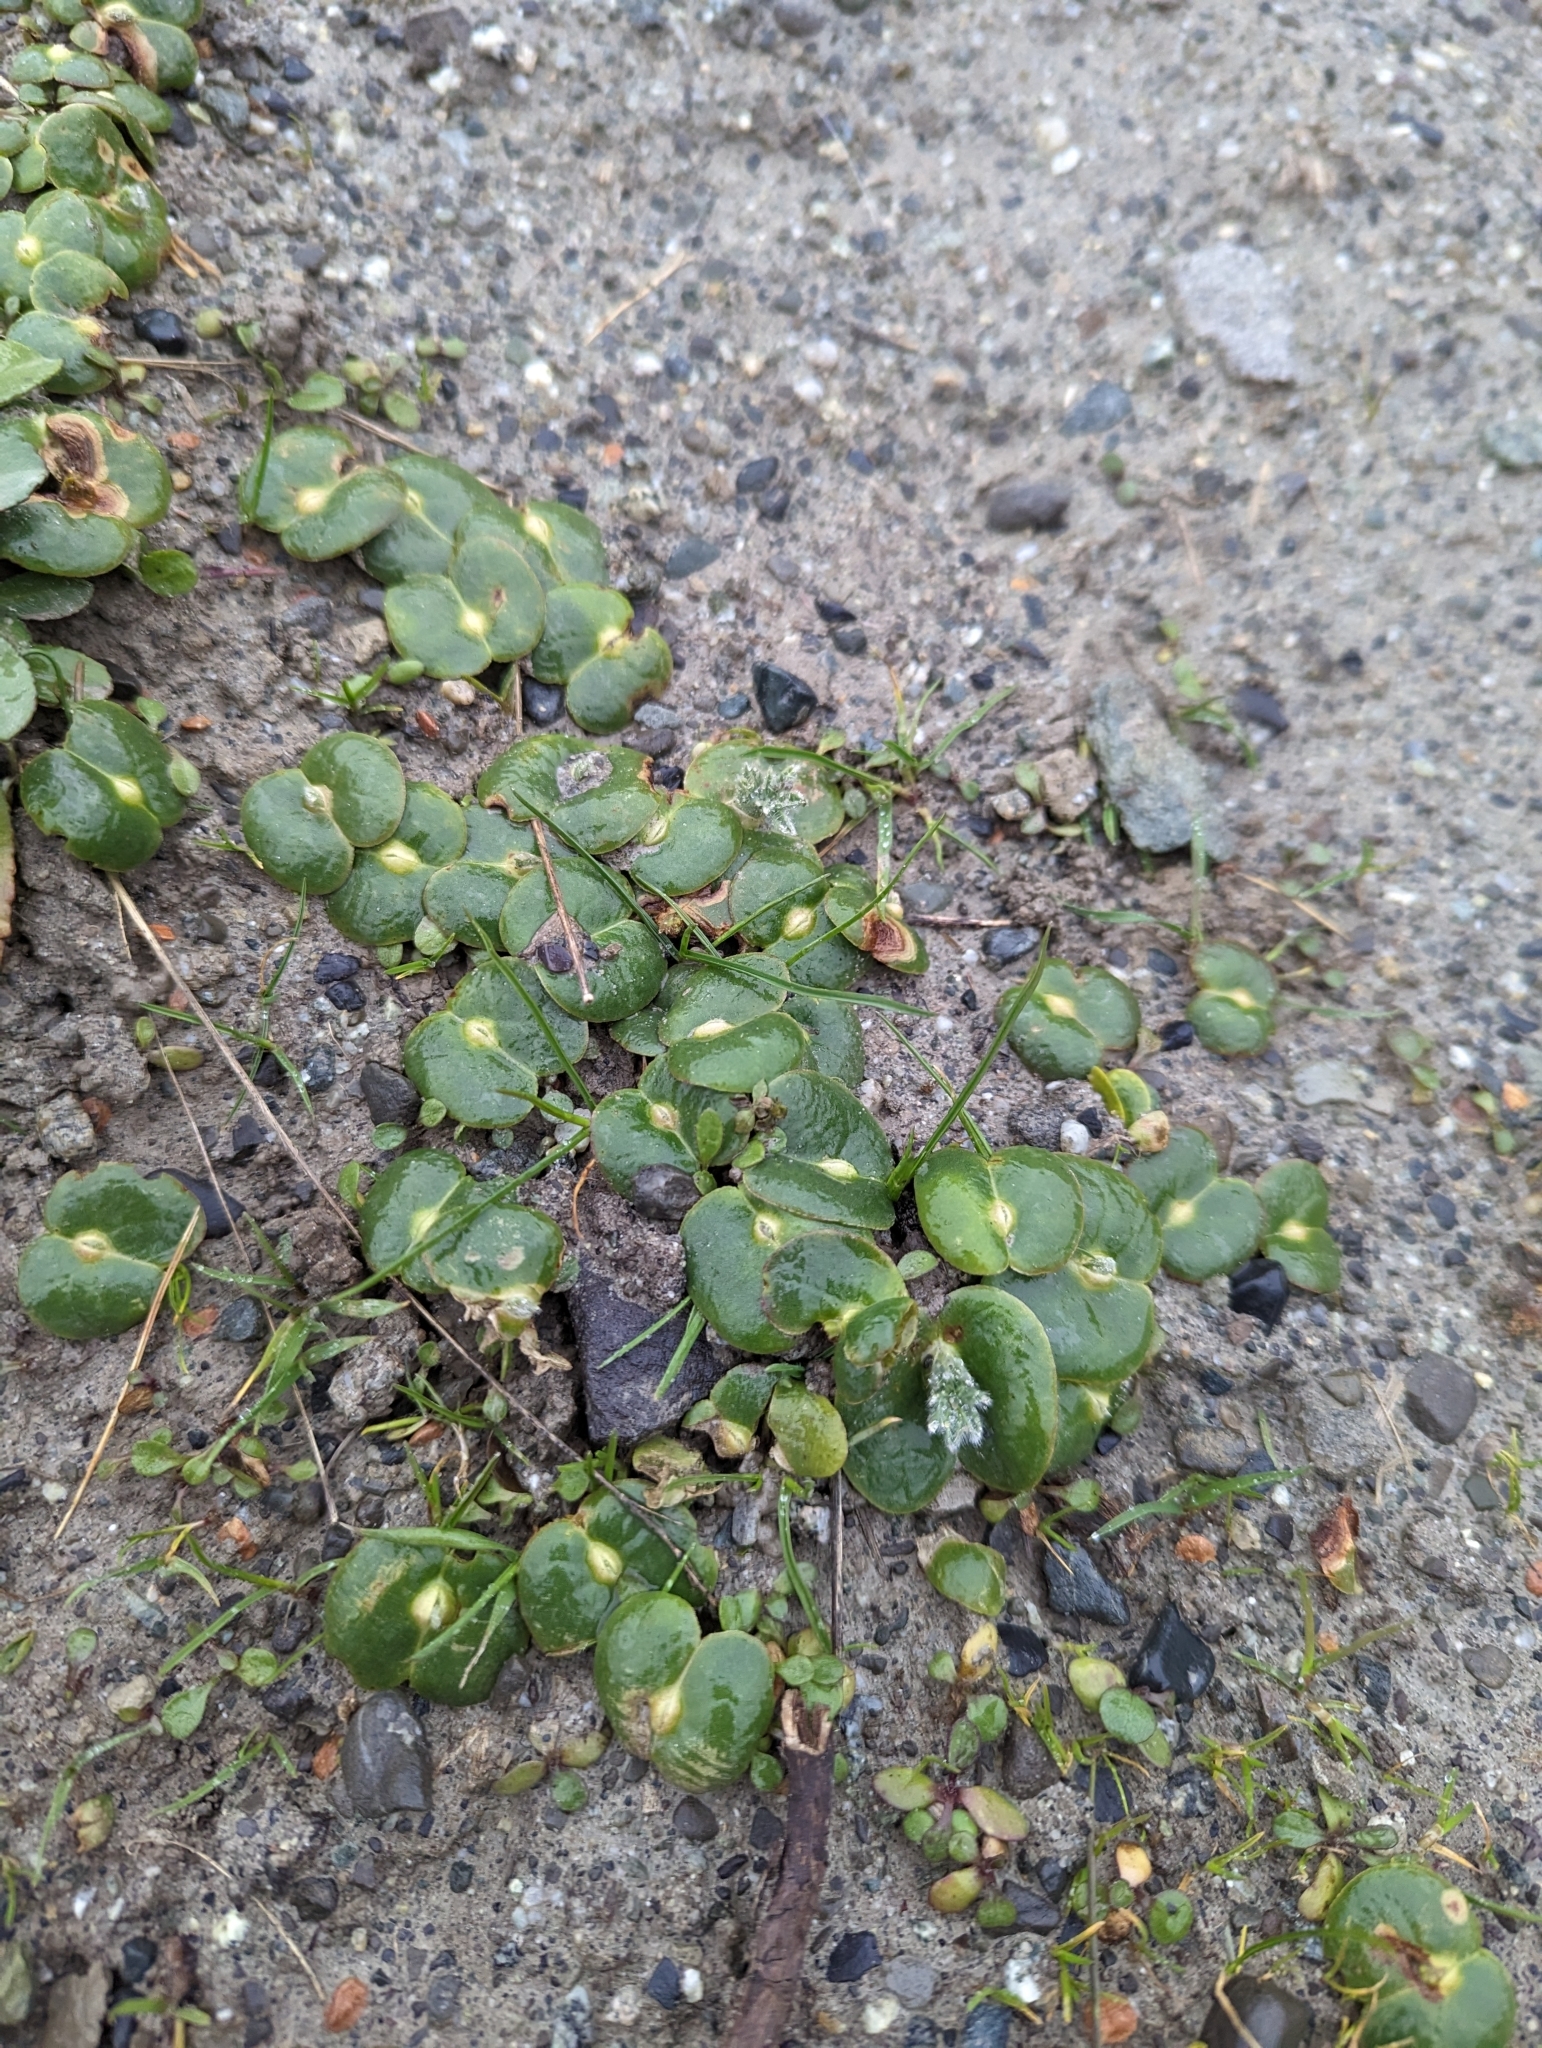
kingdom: Plantae
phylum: Tracheophyta
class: Magnoliopsida
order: Fabales
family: Fabaceae
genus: Lupinus
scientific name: Lupinus densiflorus
